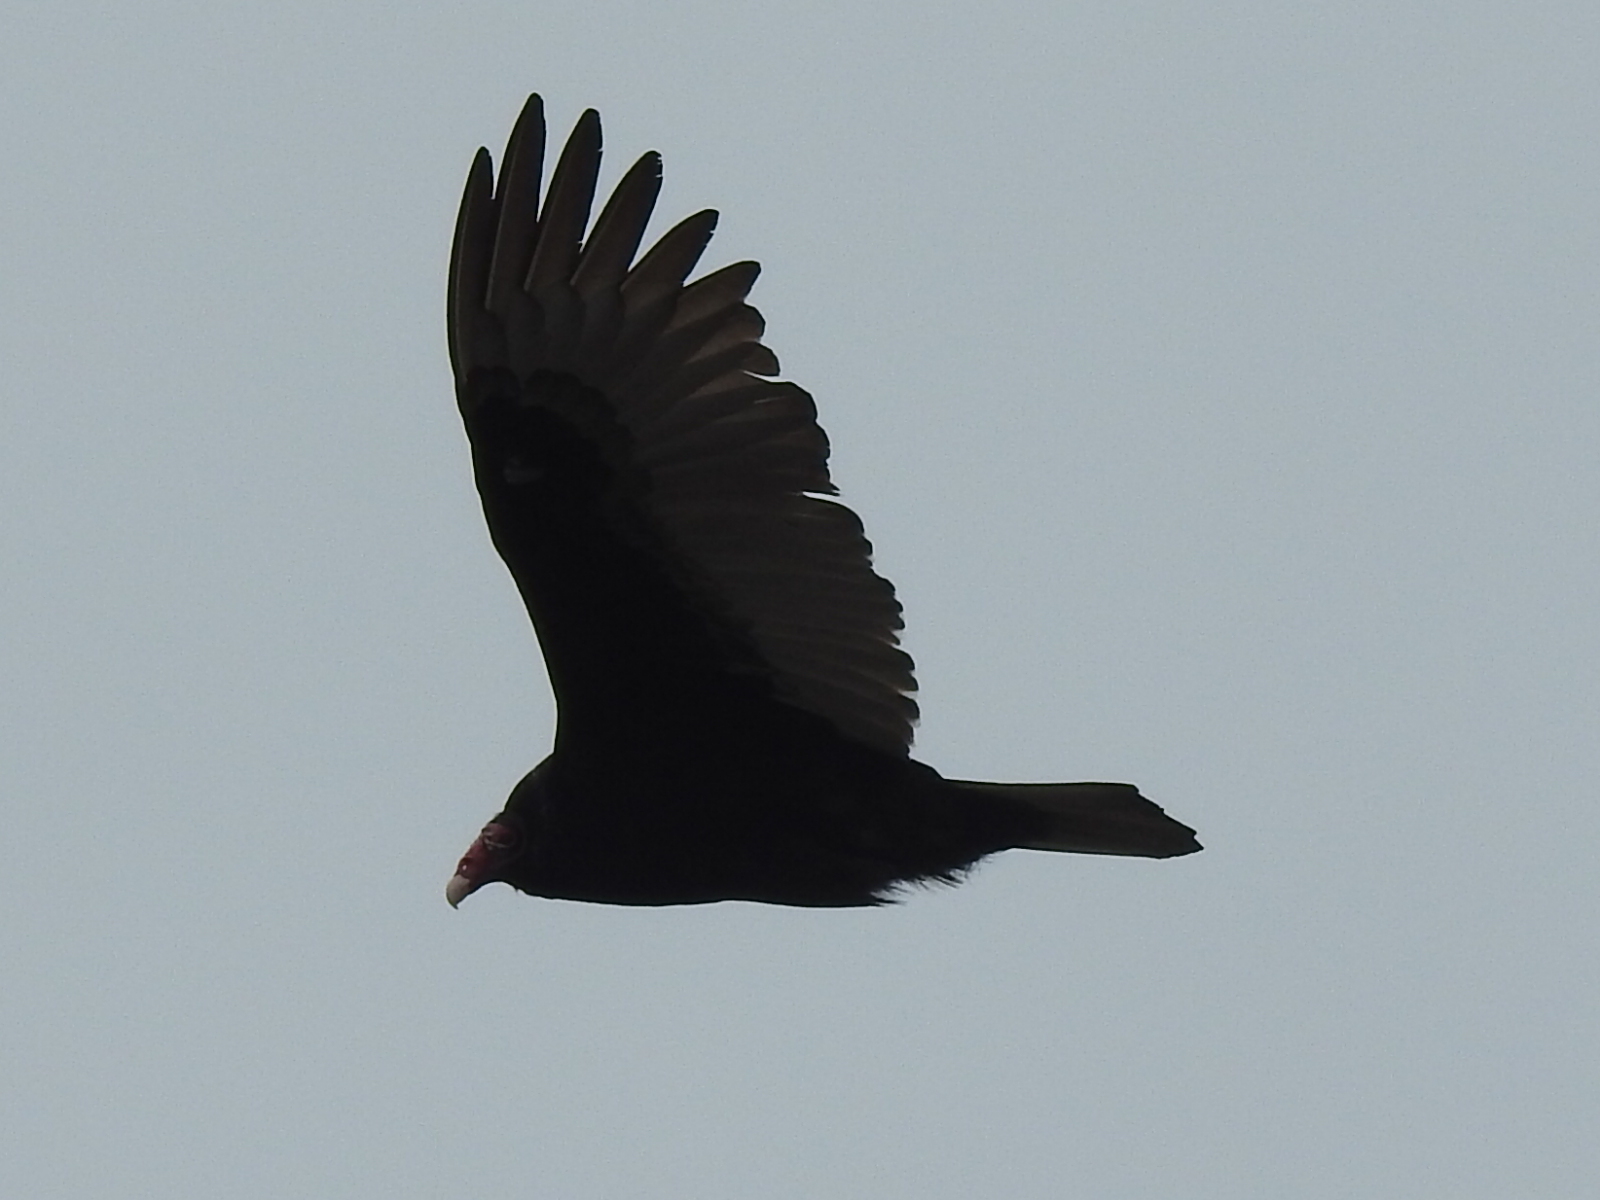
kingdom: Animalia
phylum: Chordata
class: Aves
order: Accipitriformes
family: Cathartidae
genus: Cathartes
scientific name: Cathartes aura
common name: Turkey vulture
